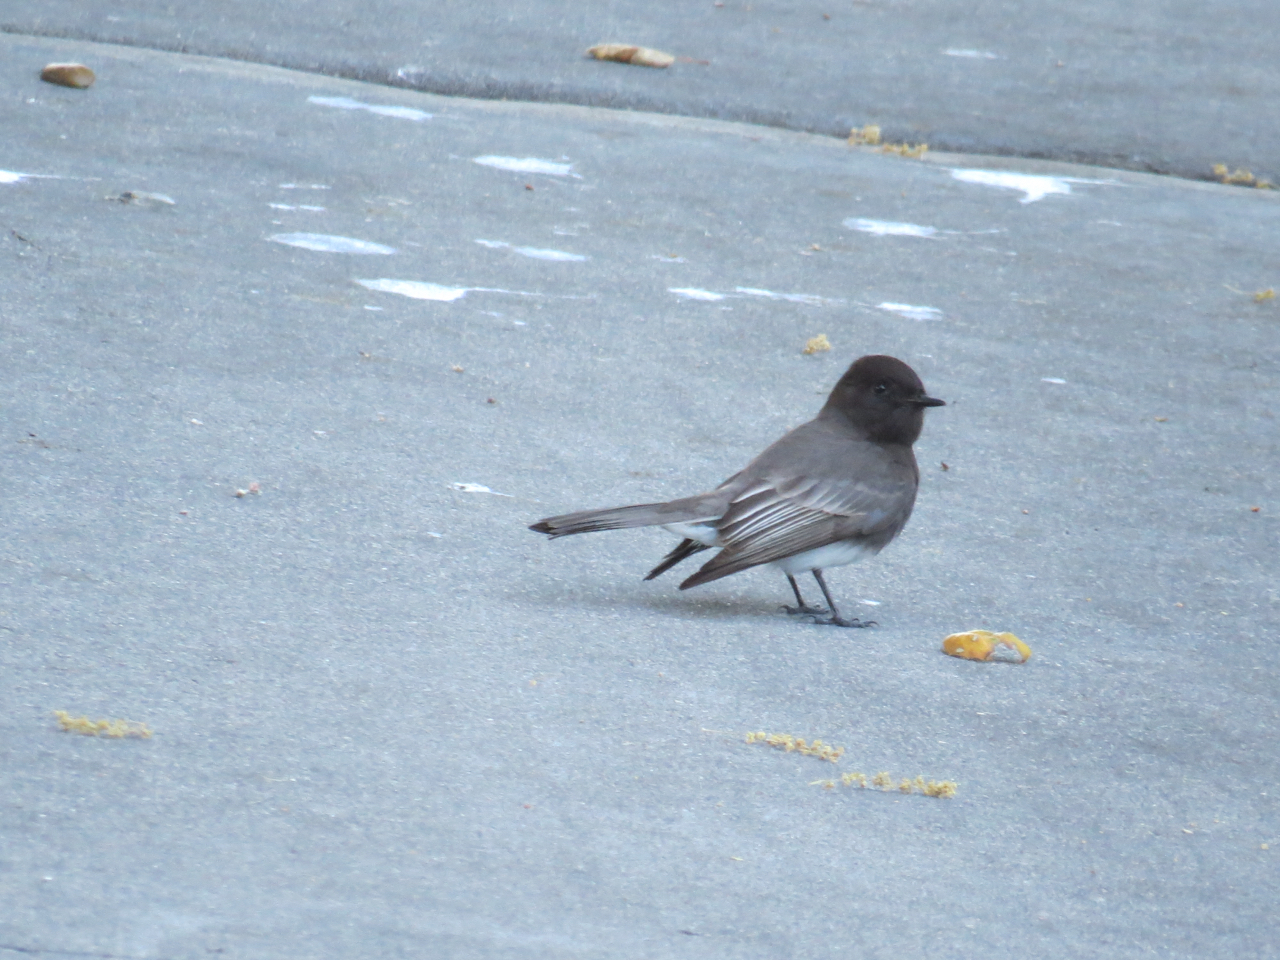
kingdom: Animalia
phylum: Chordata
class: Aves
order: Passeriformes
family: Tyrannidae
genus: Sayornis
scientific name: Sayornis nigricans
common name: Black phoebe
